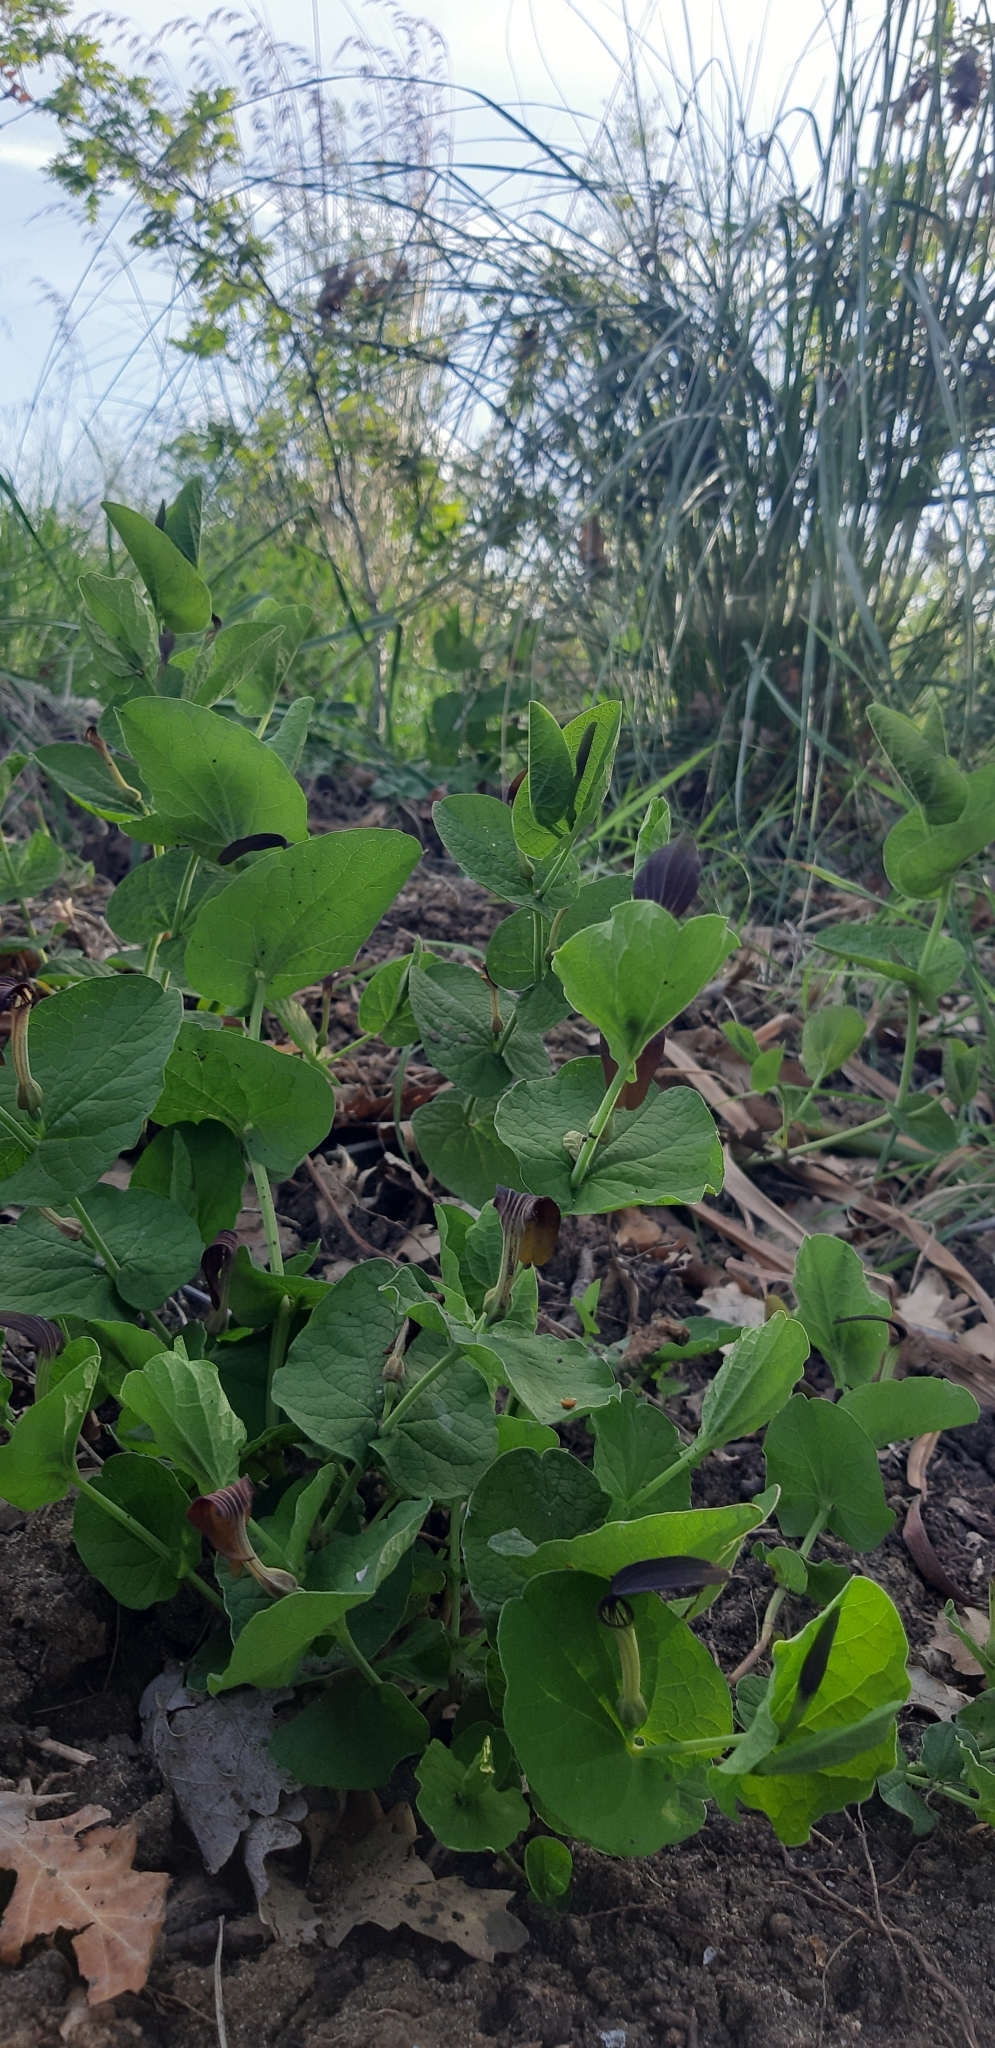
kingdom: Plantae
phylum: Tracheophyta
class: Magnoliopsida
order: Piperales
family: Aristolochiaceae
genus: Aristolochia
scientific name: Aristolochia rotunda
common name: Smearwort
